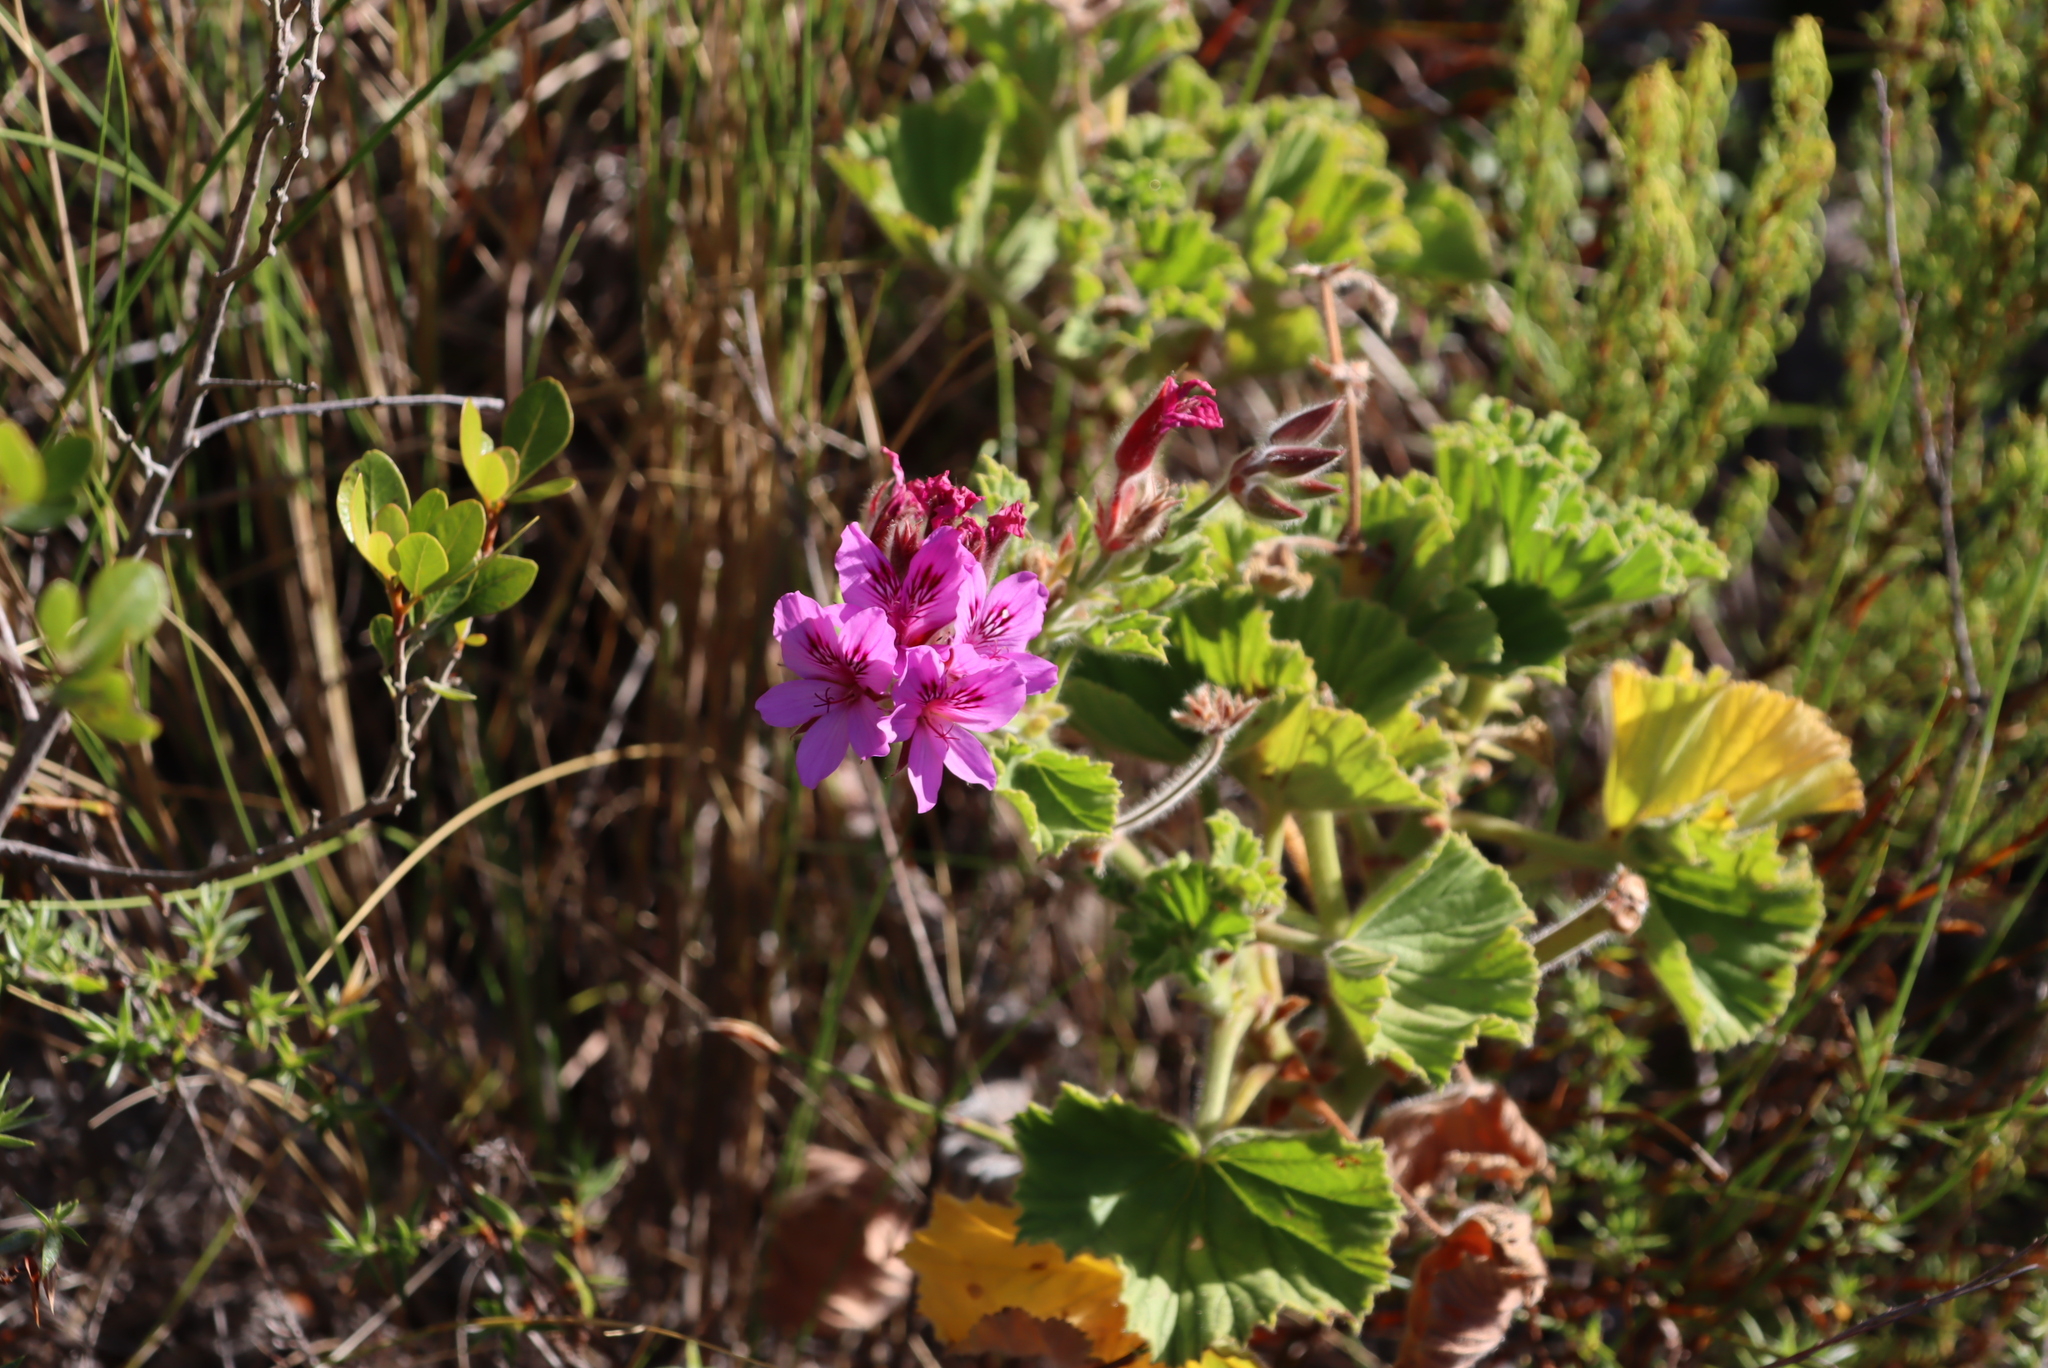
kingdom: Plantae
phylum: Tracheophyta
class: Magnoliopsida
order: Geraniales
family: Geraniaceae
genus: Pelargonium
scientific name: Pelargonium cucullatum
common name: Tree pelargonium
